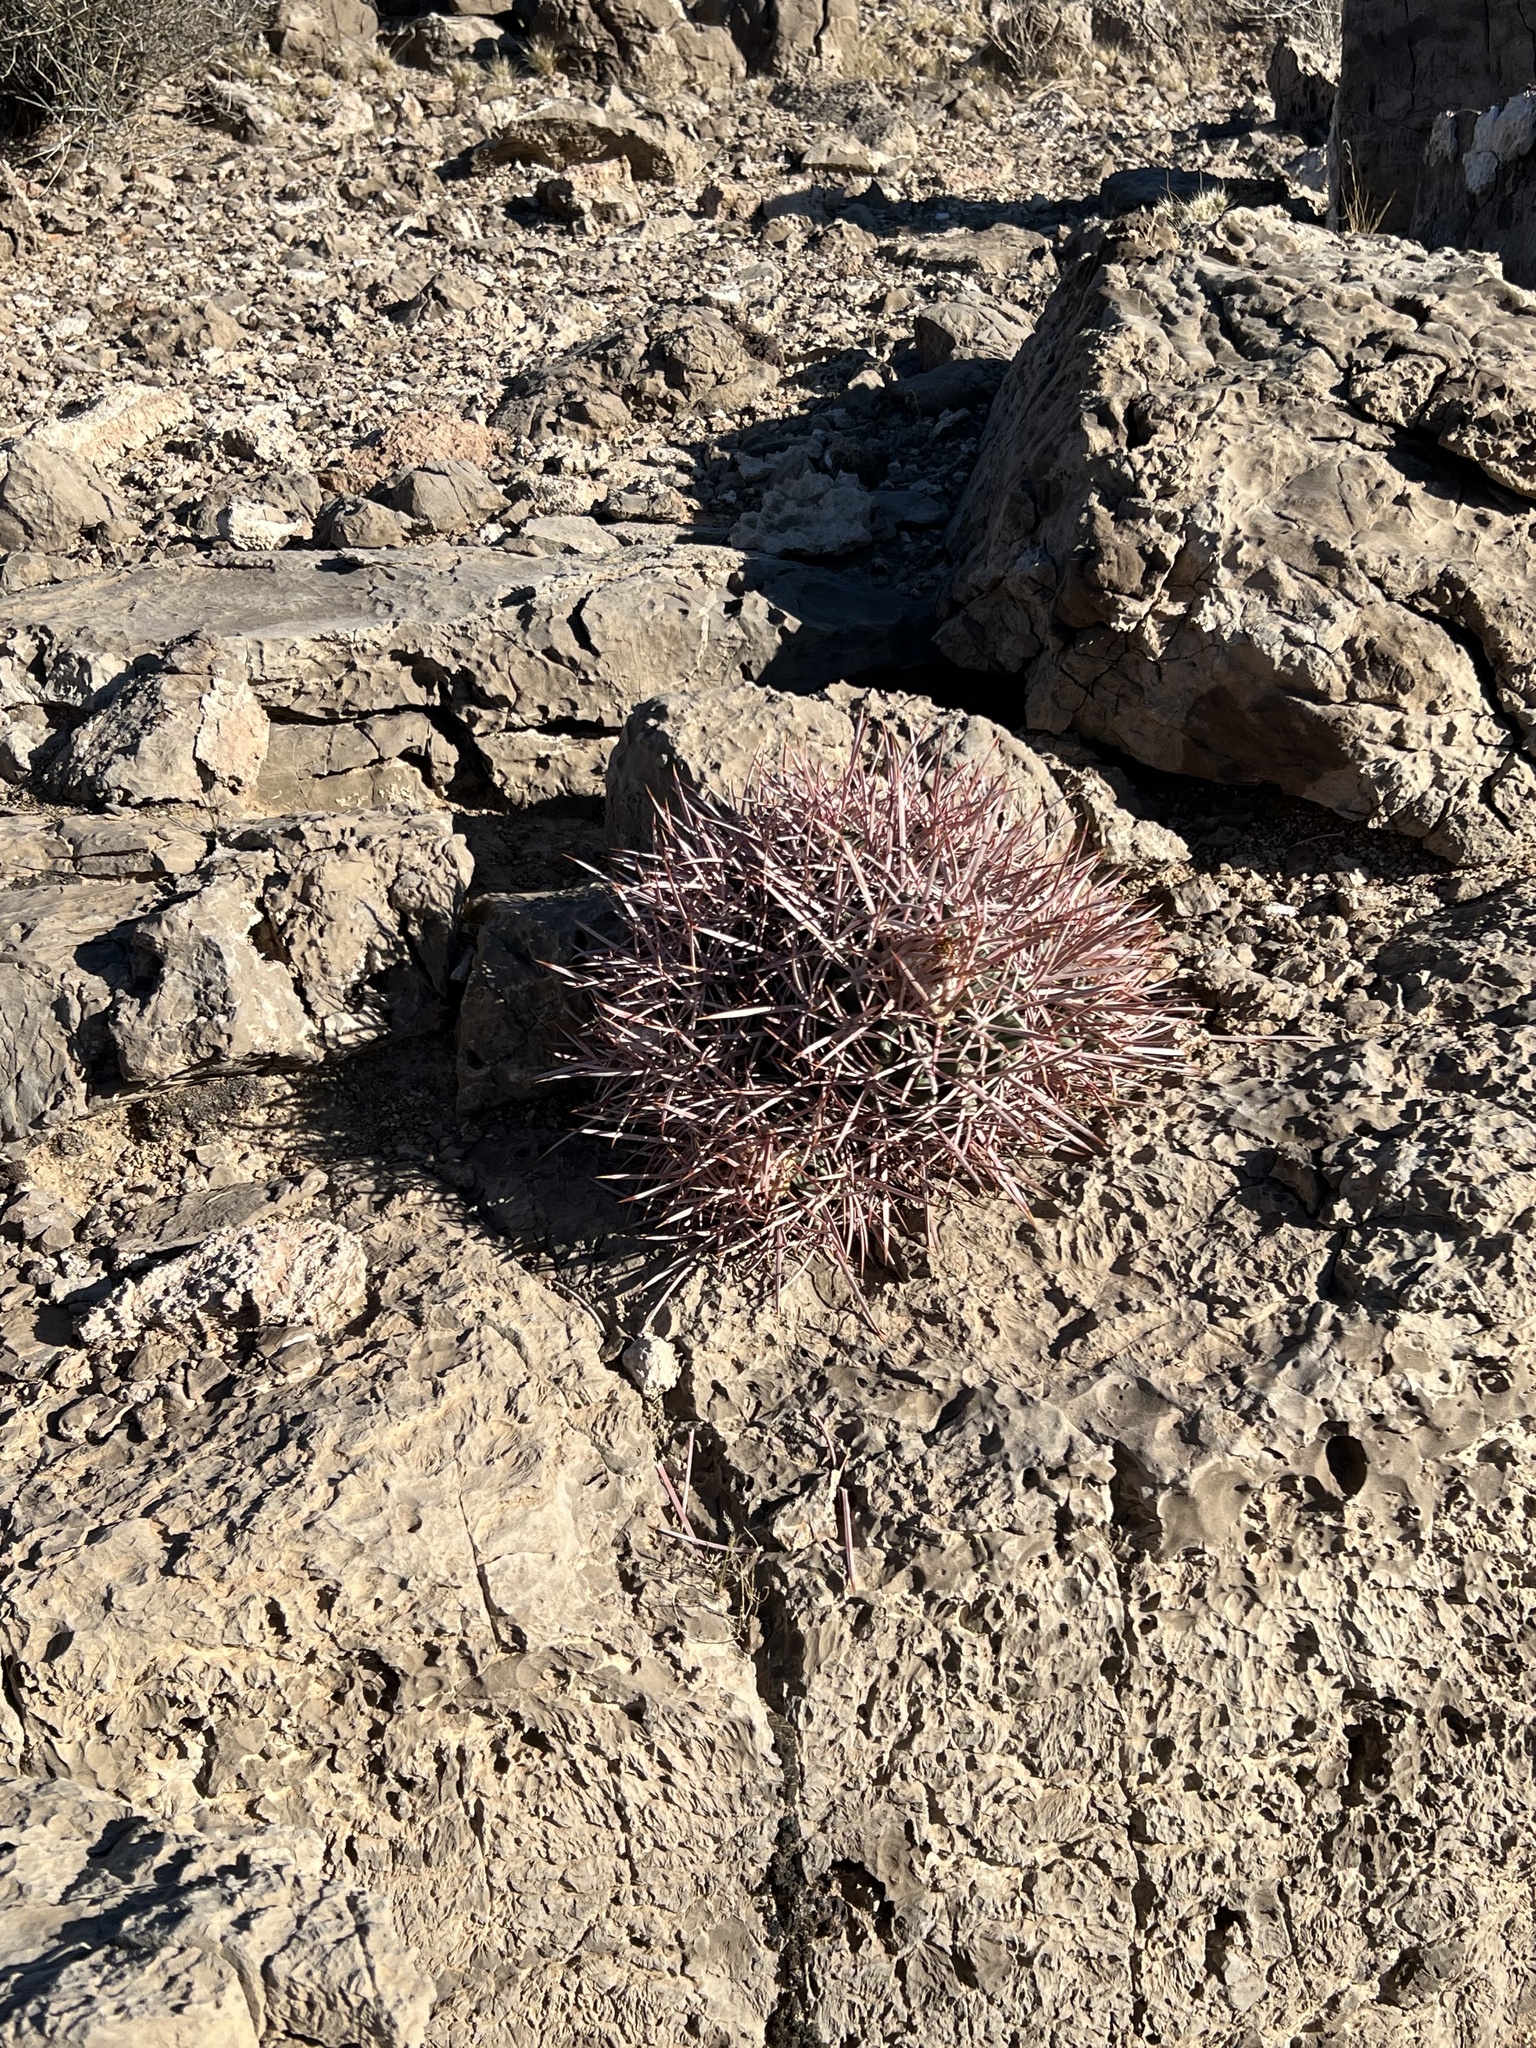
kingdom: Plantae
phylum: Tracheophyta
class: Magnoliopsida
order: Caryophyllales
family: Cactaceae
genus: Echinocactus
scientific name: Echinocactus polycephalus
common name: Cottontop cactus
